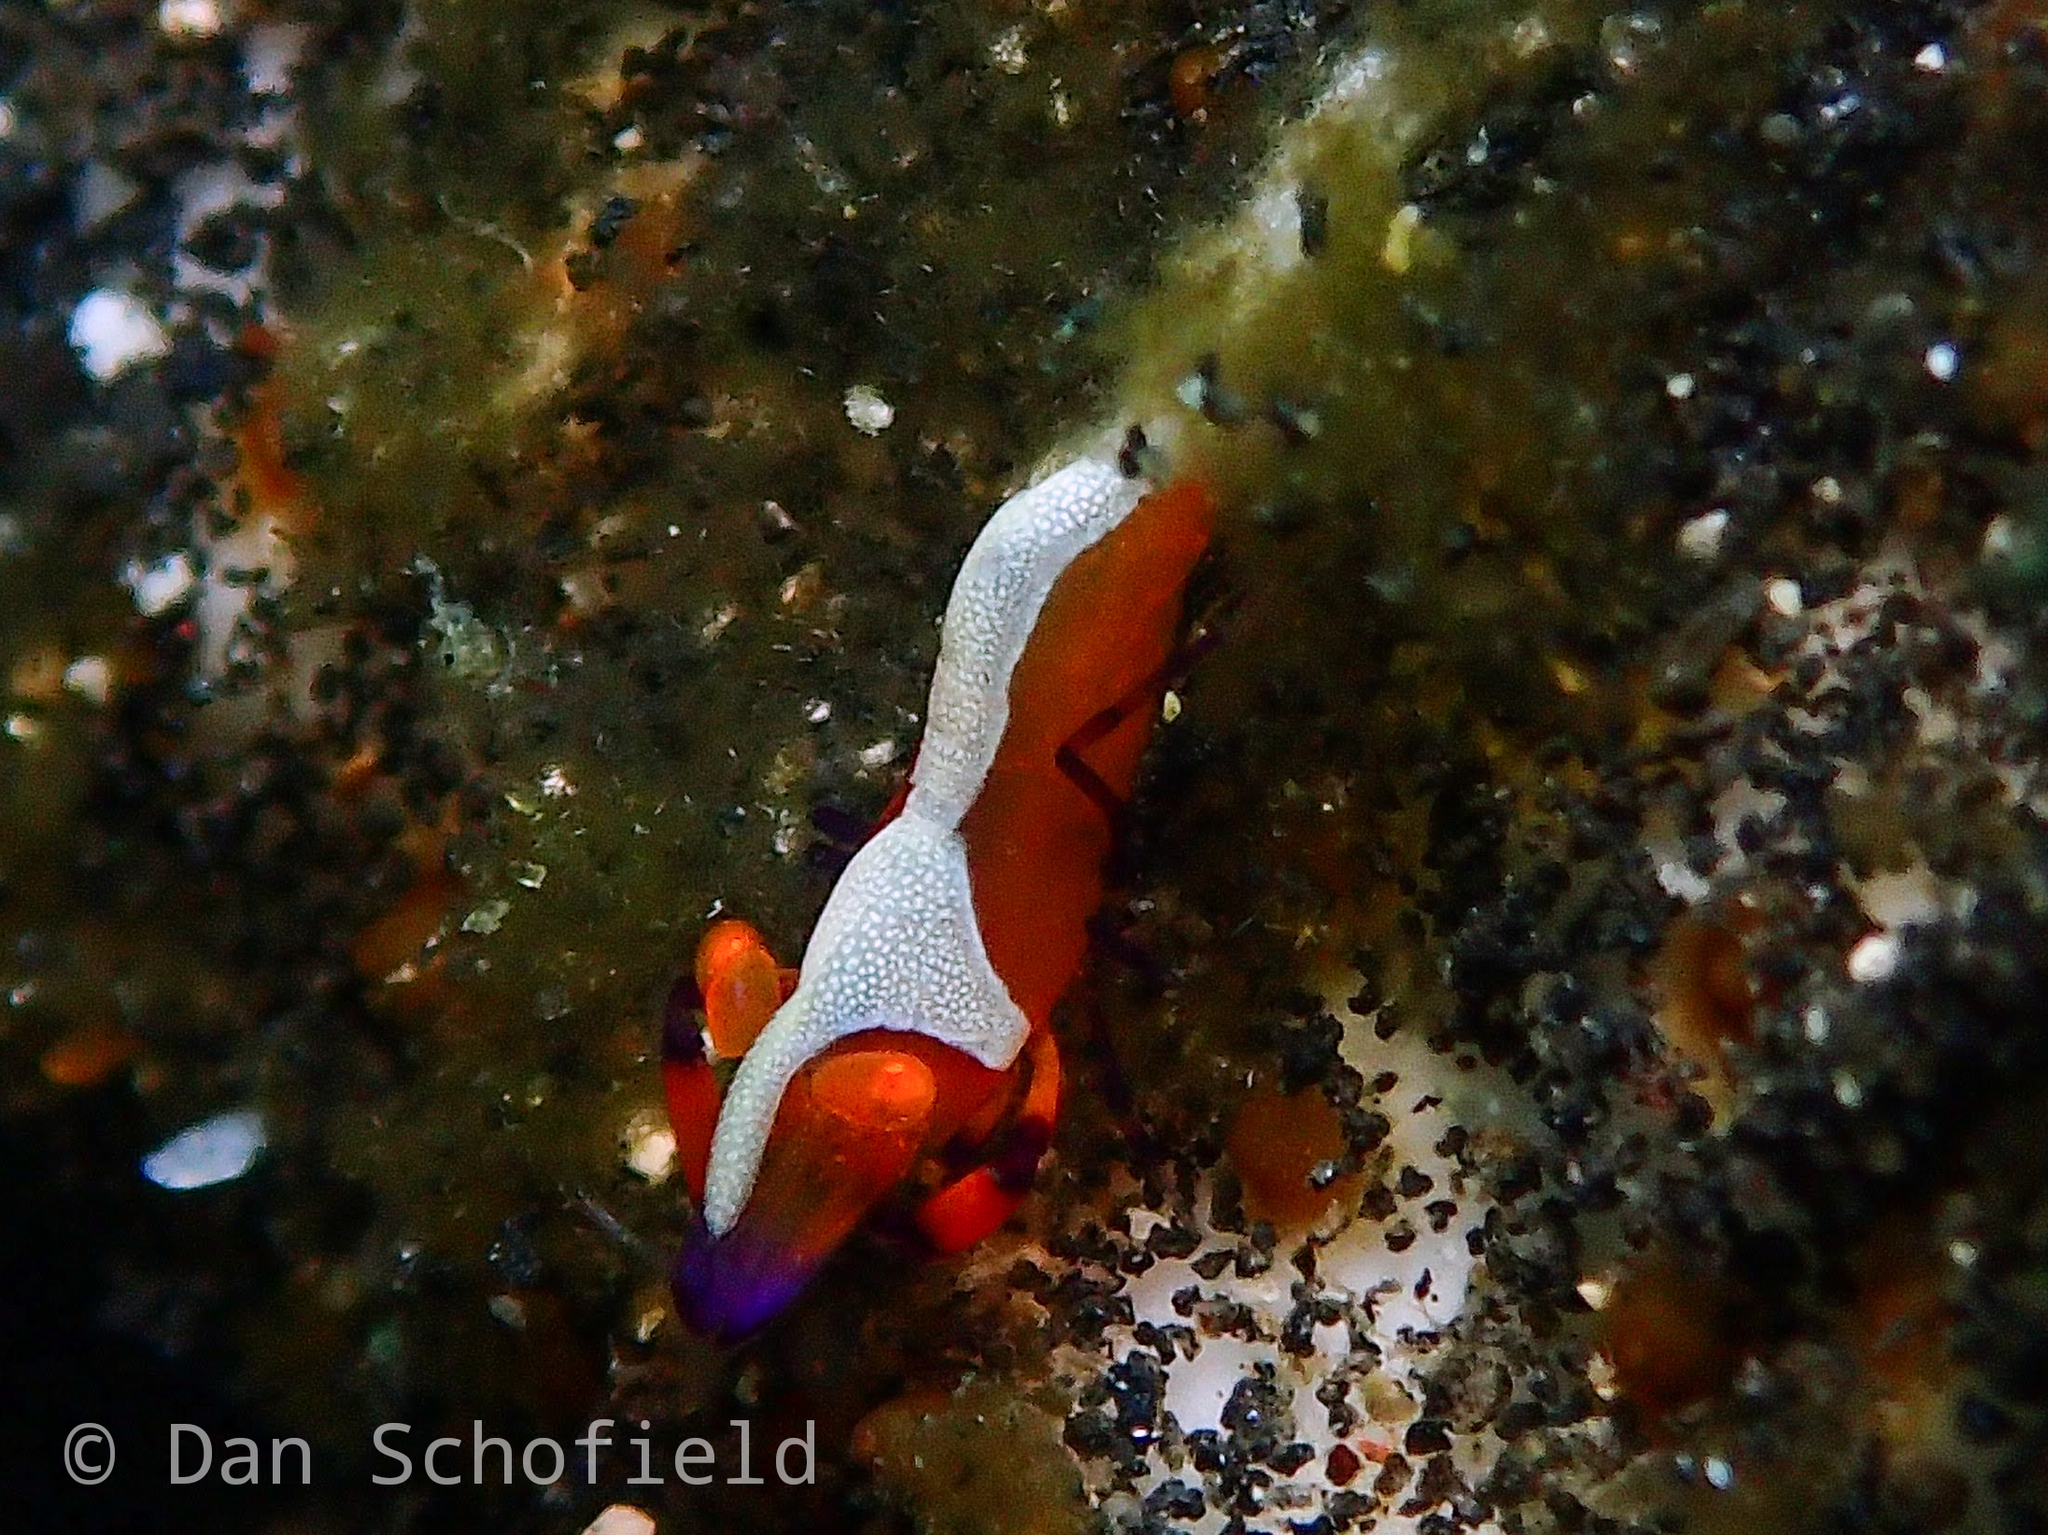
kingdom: Animalia
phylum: Arthropoda
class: Malacostraca
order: Decapoda
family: Palaemonidae
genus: Periclimenes
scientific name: Periclimenes rex
